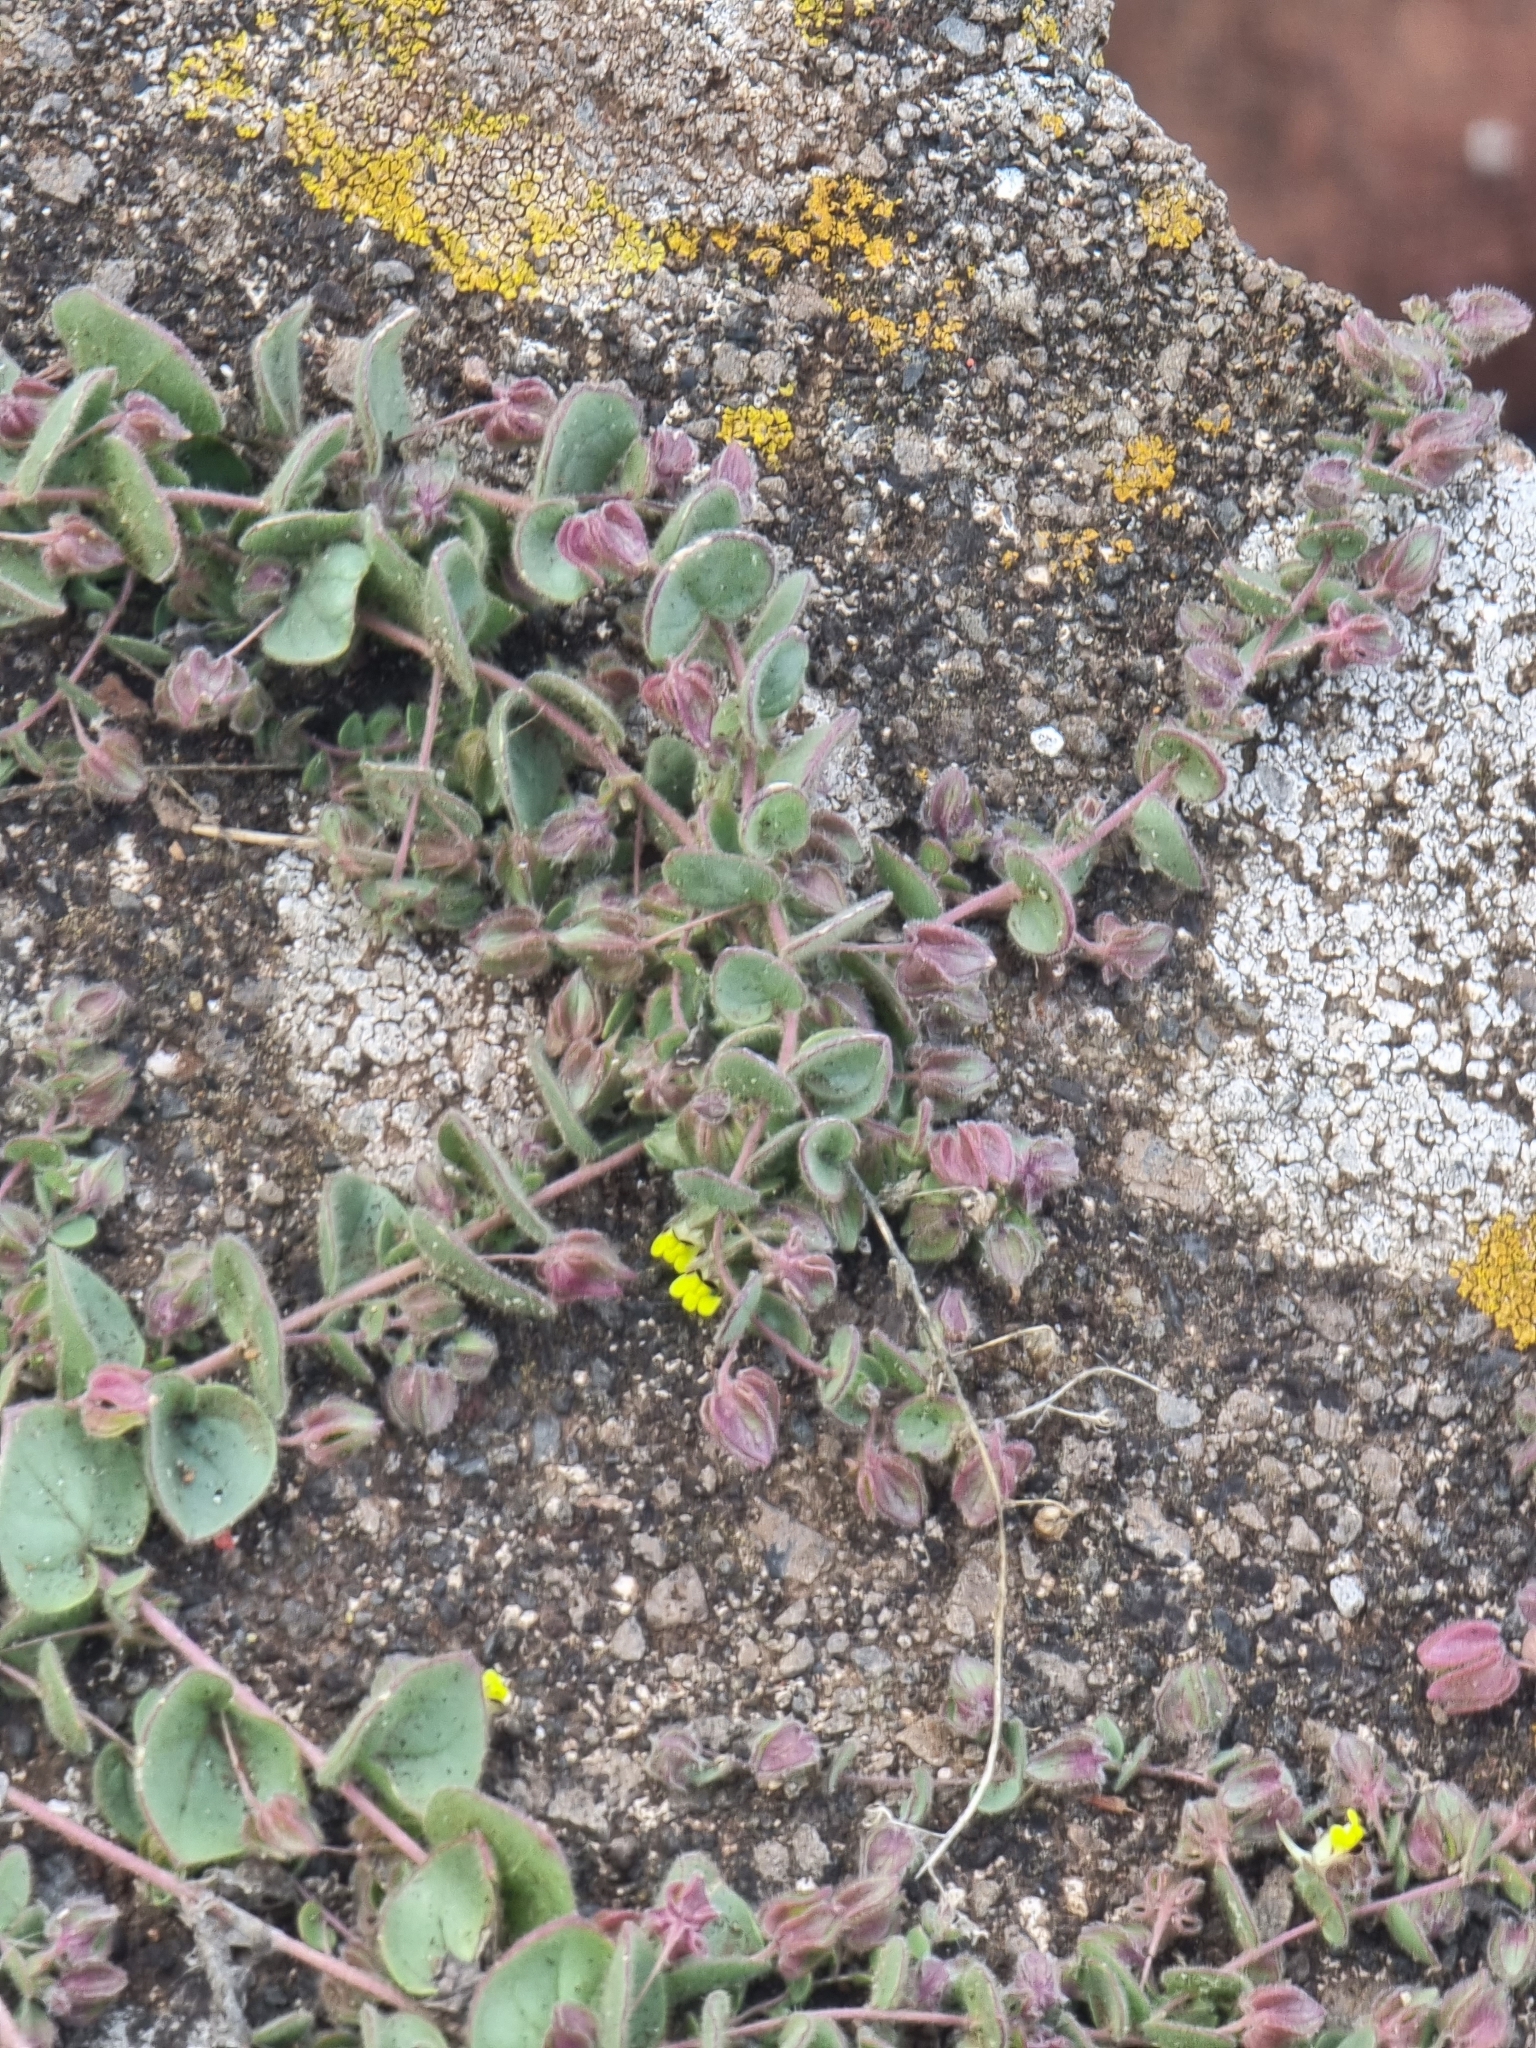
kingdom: Plantae
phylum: Tracheophyta
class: Magnoliopsida
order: Lamiales
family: Plantaginaceae
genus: Kickxia
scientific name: Kickxia spuria
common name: Round-leaved fluellen
